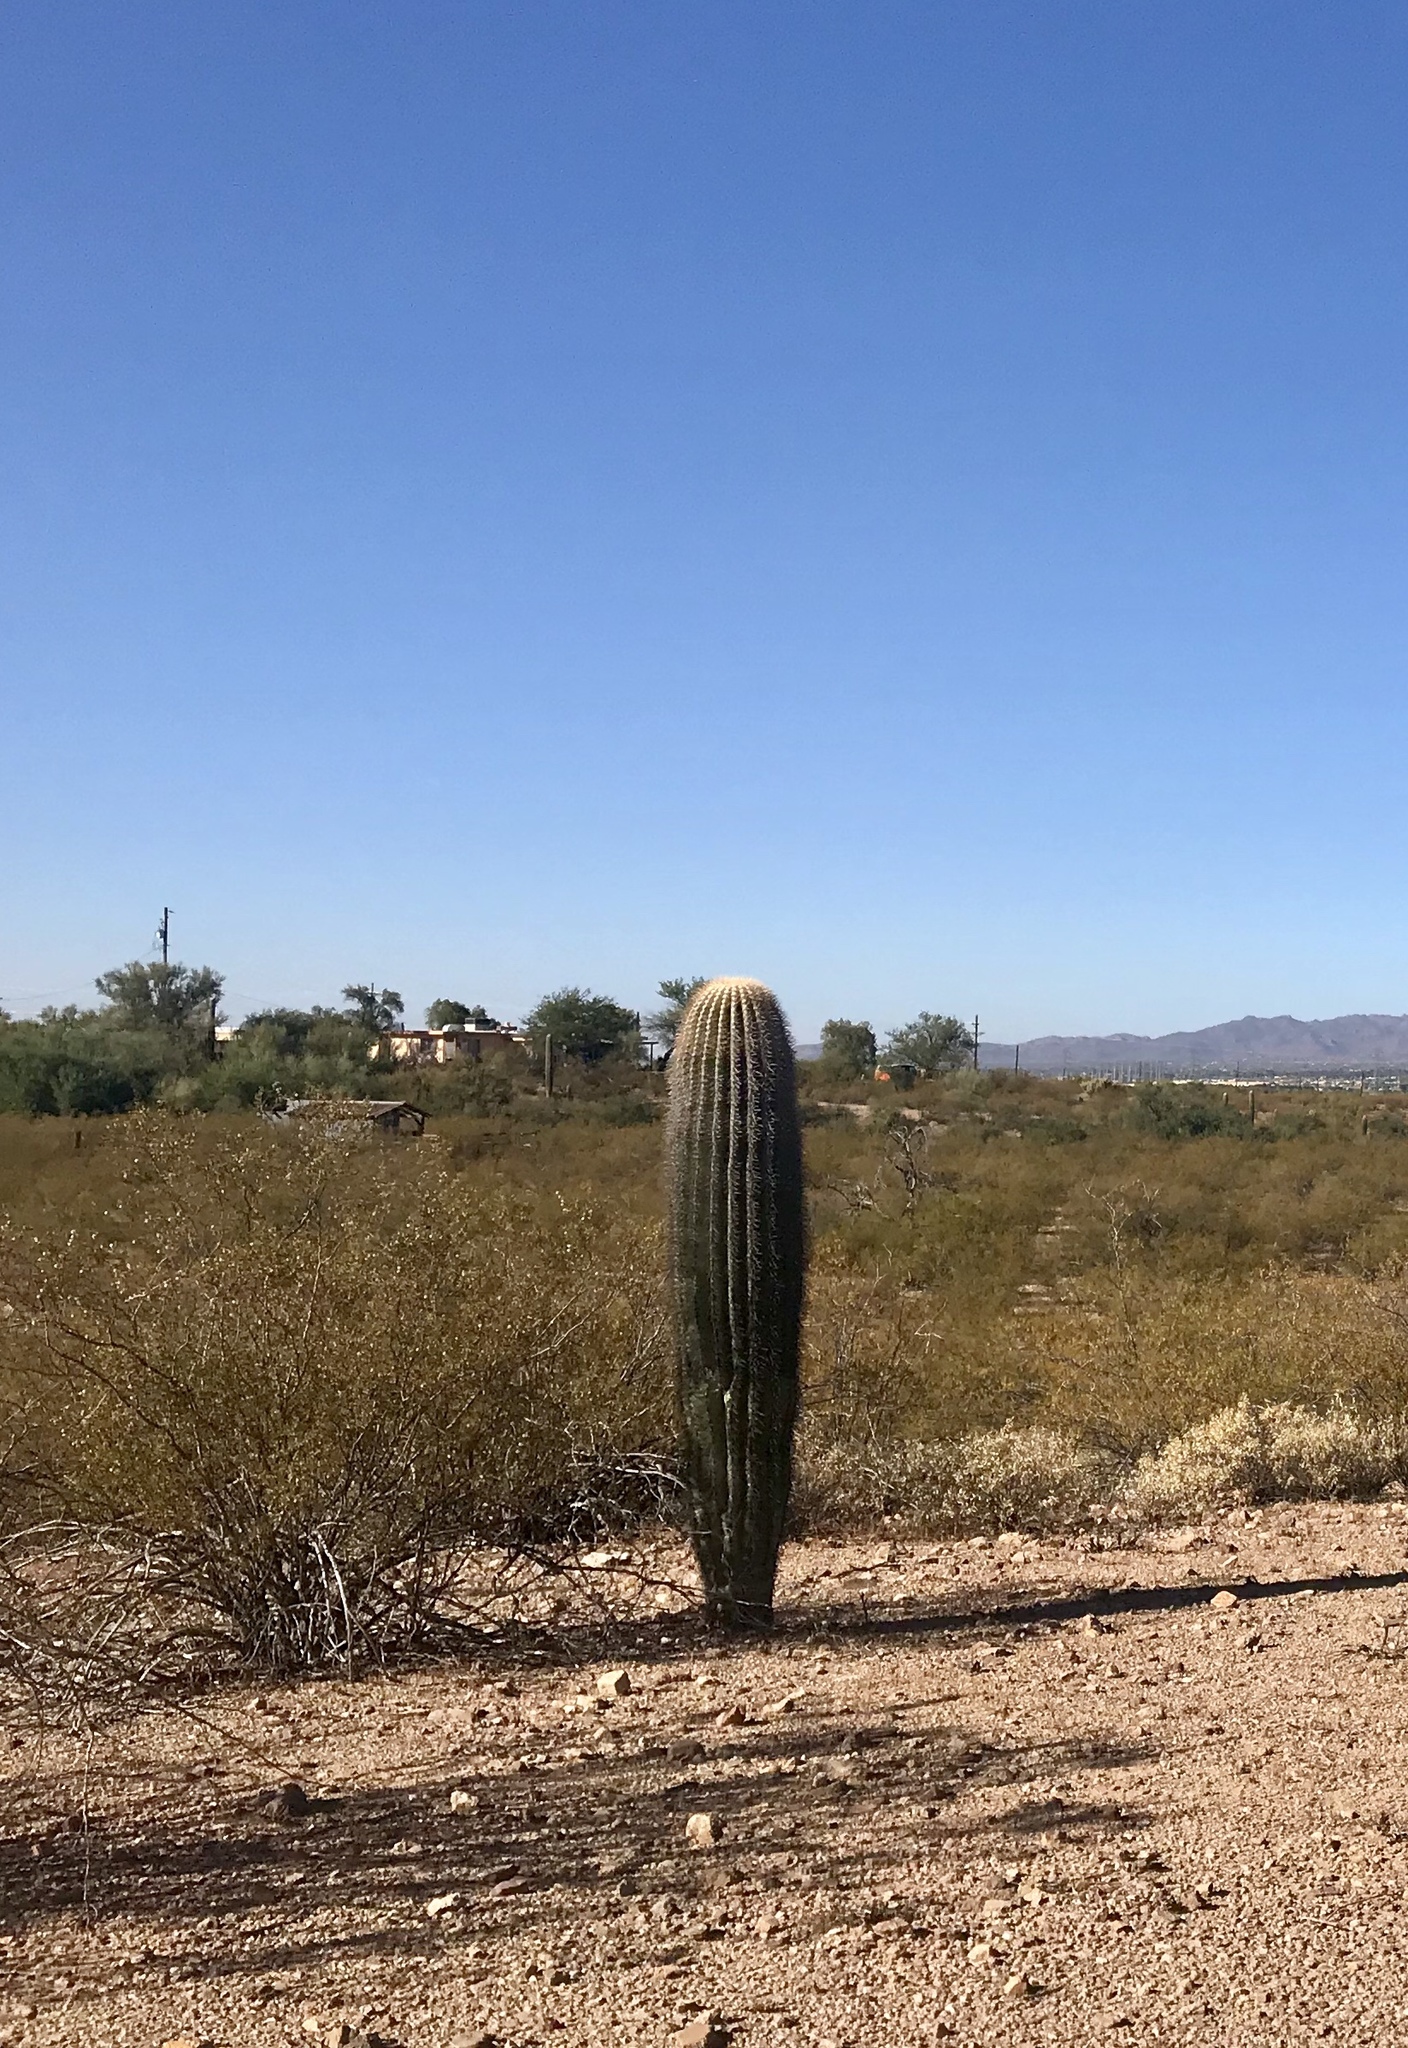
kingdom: Plantae
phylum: Tracheophyta
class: Magnoliopsida
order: Caryophyllales
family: Cactaceae
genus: Carnegiea
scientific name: Carnegiea gigantea
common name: Saguaro
